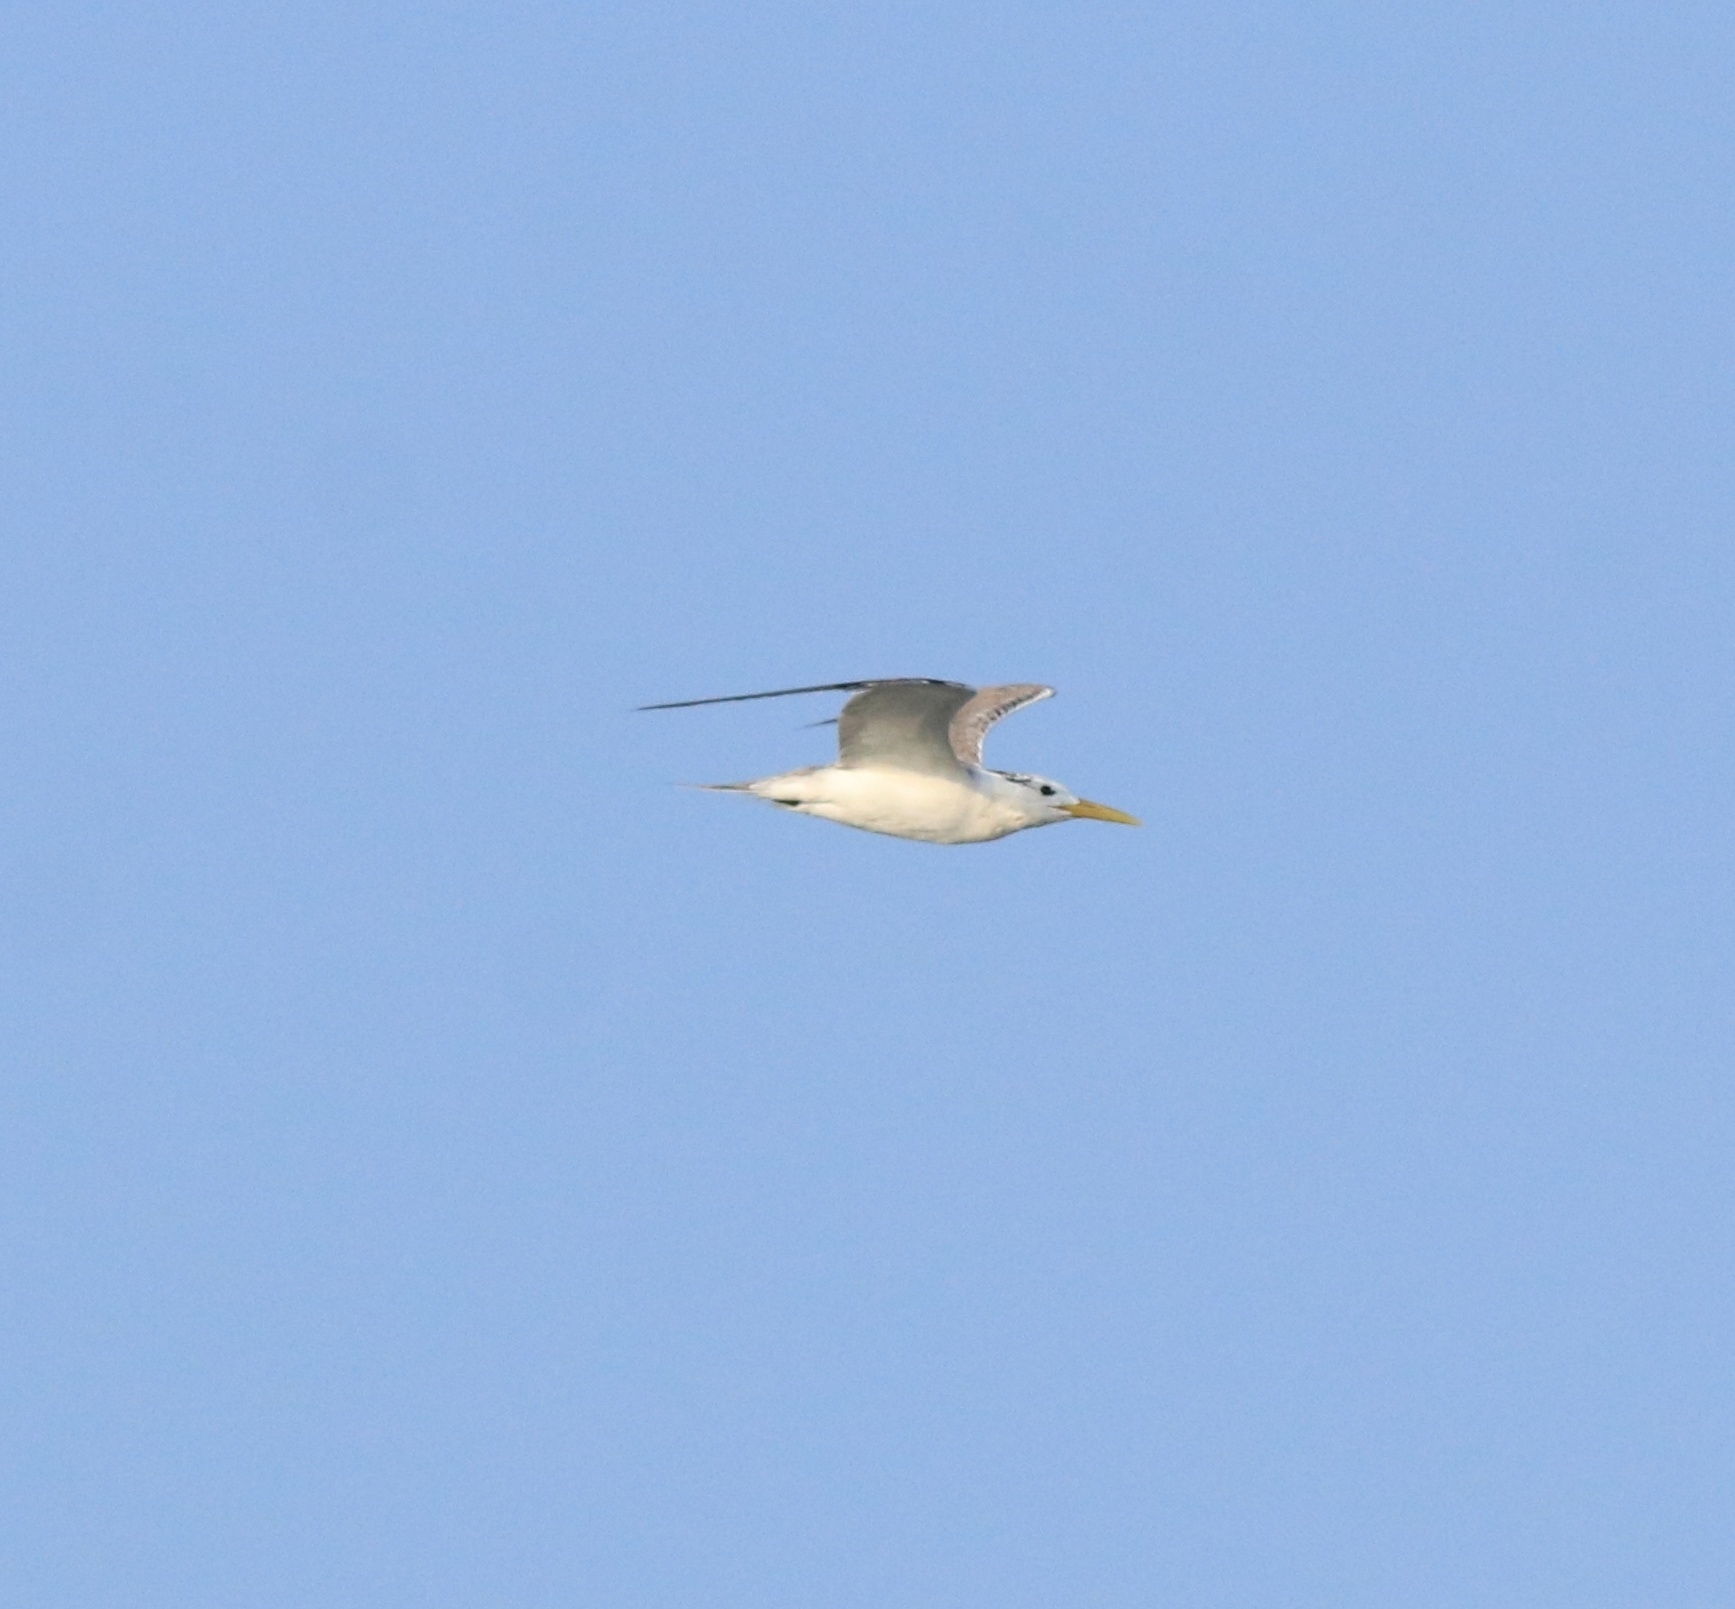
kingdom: Animalia
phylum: Chordata
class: Aves
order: Charadriiformes
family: Laridae
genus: Thalasseus
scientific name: Thalasseus bergii
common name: Greater crested tern
